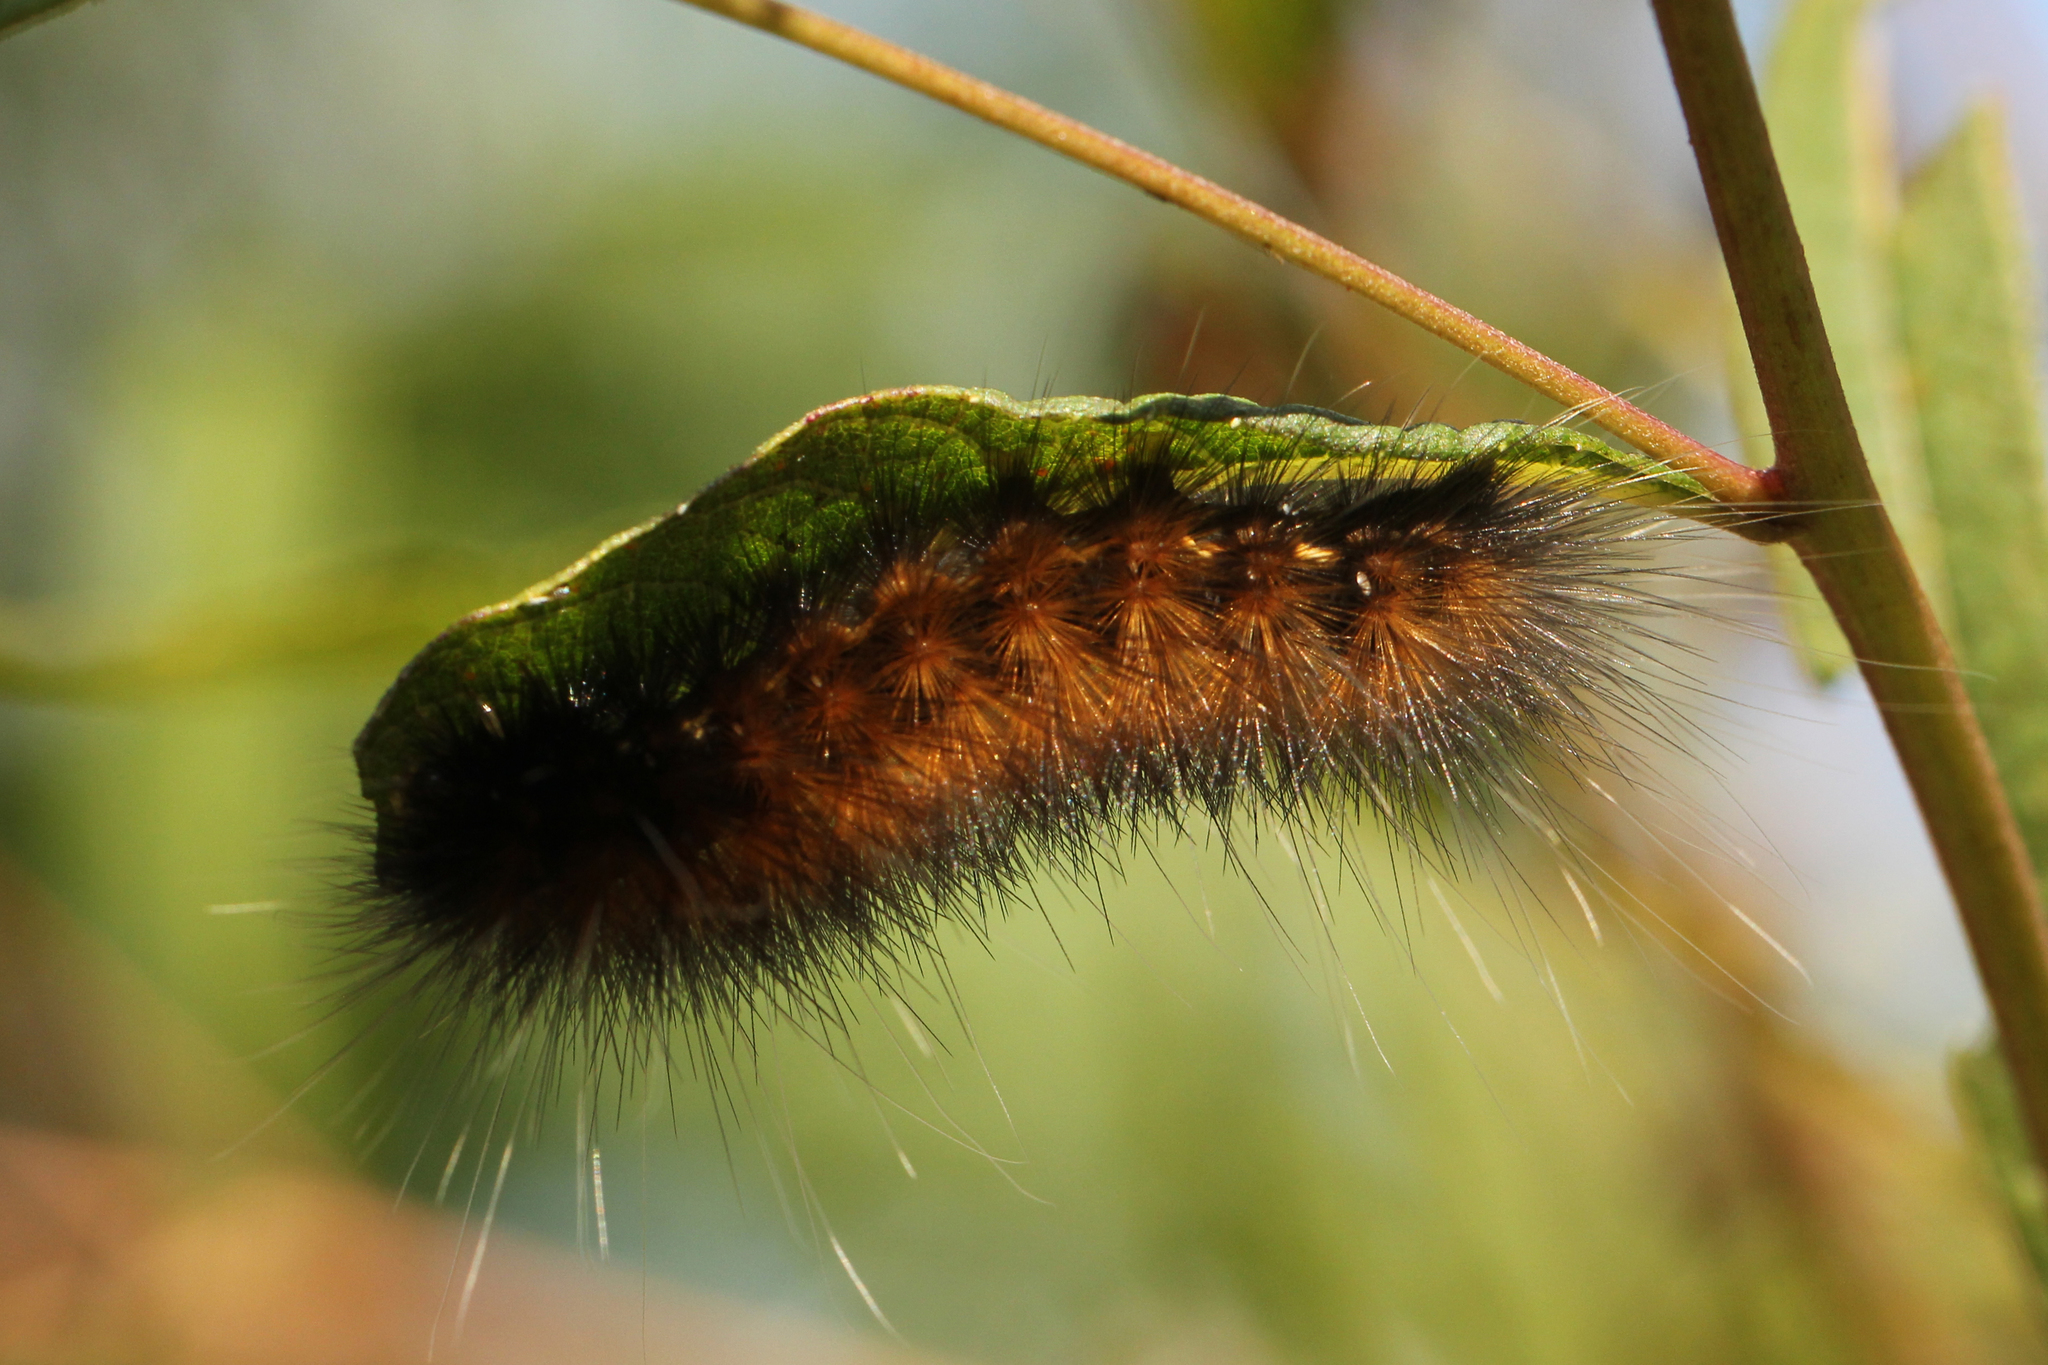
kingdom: Animalia
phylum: Arthropoda
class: Insecta
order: Lepidoptera
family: Erebidae
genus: Estigmene
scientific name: Estigmene acrea
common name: Salt marsh moth
